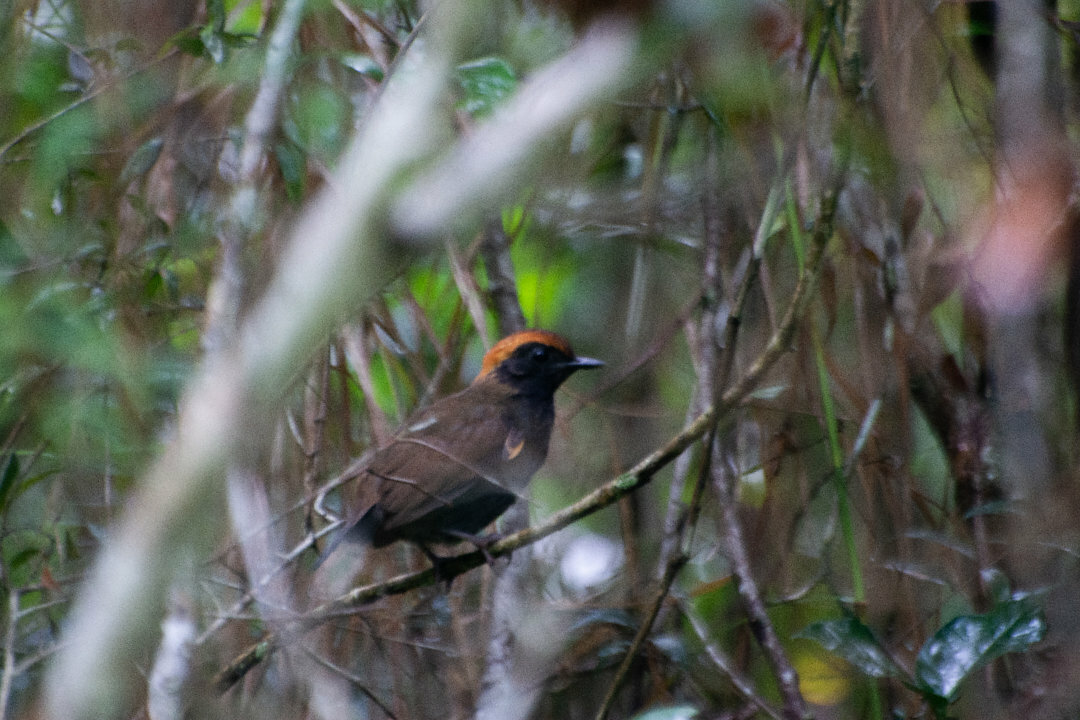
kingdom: Animalia
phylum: Chordata
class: Aves
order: Passeriformes
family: Formicariidae
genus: Formicarius
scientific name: Formicarius colma
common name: Rufous-capped antthrush
